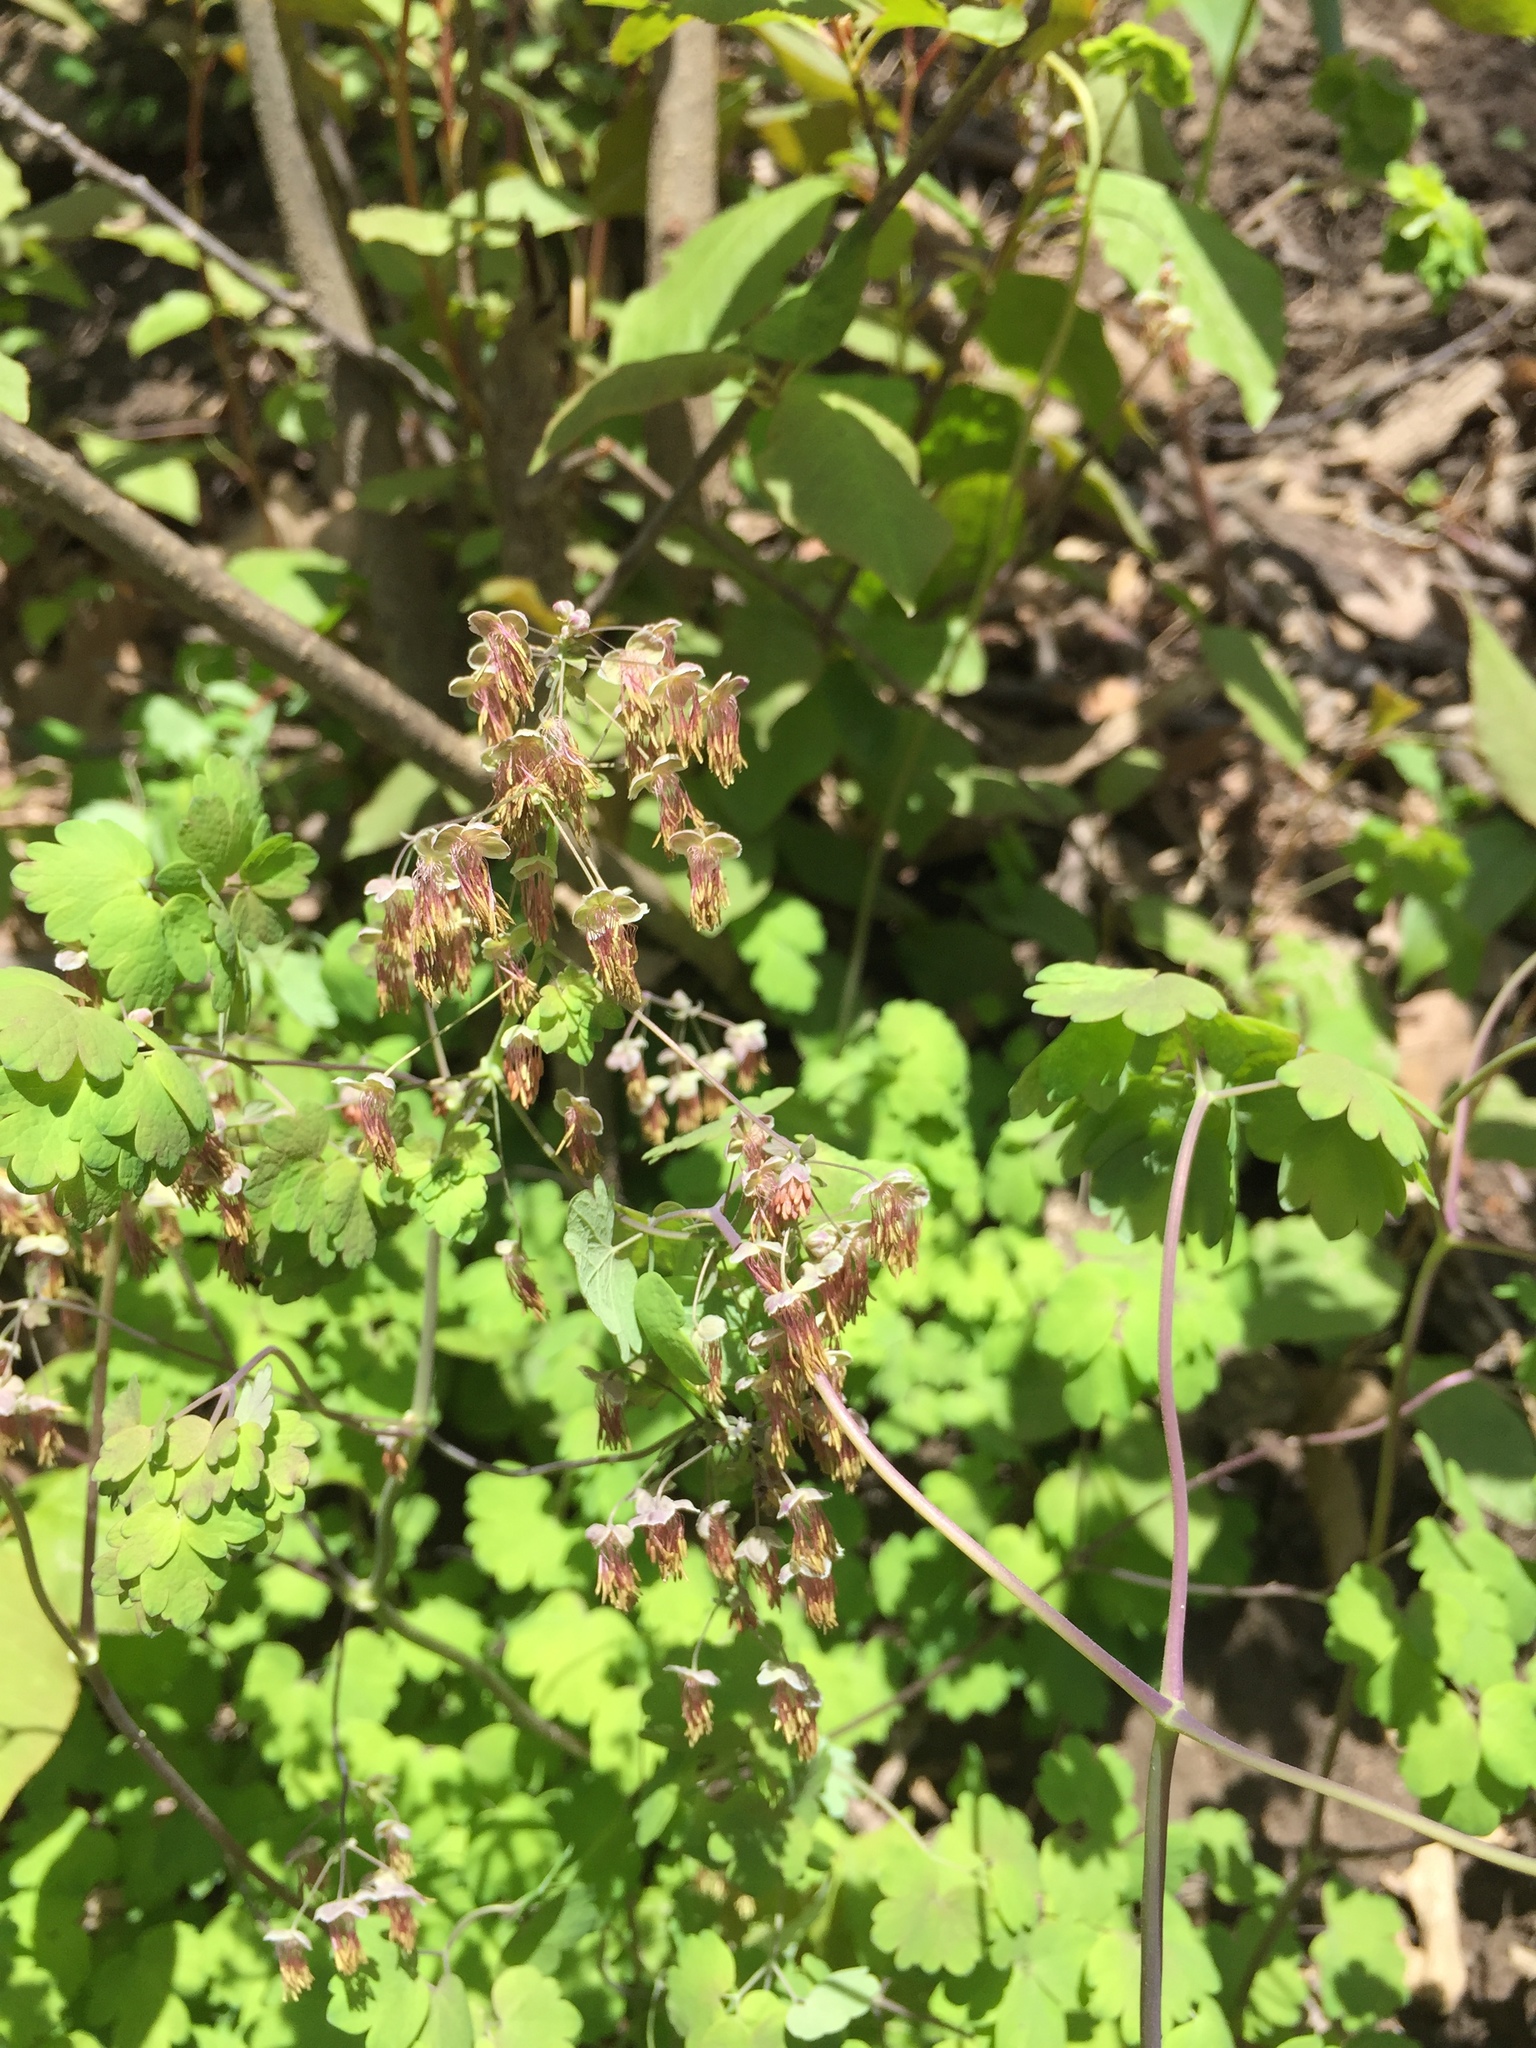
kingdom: Plantae
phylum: Tracheophyta
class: Magnoliopsida
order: Ranunculales
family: Ranunculaceae
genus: Thalictrum
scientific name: Thalictrum dioicum
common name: Early meadow-rue
